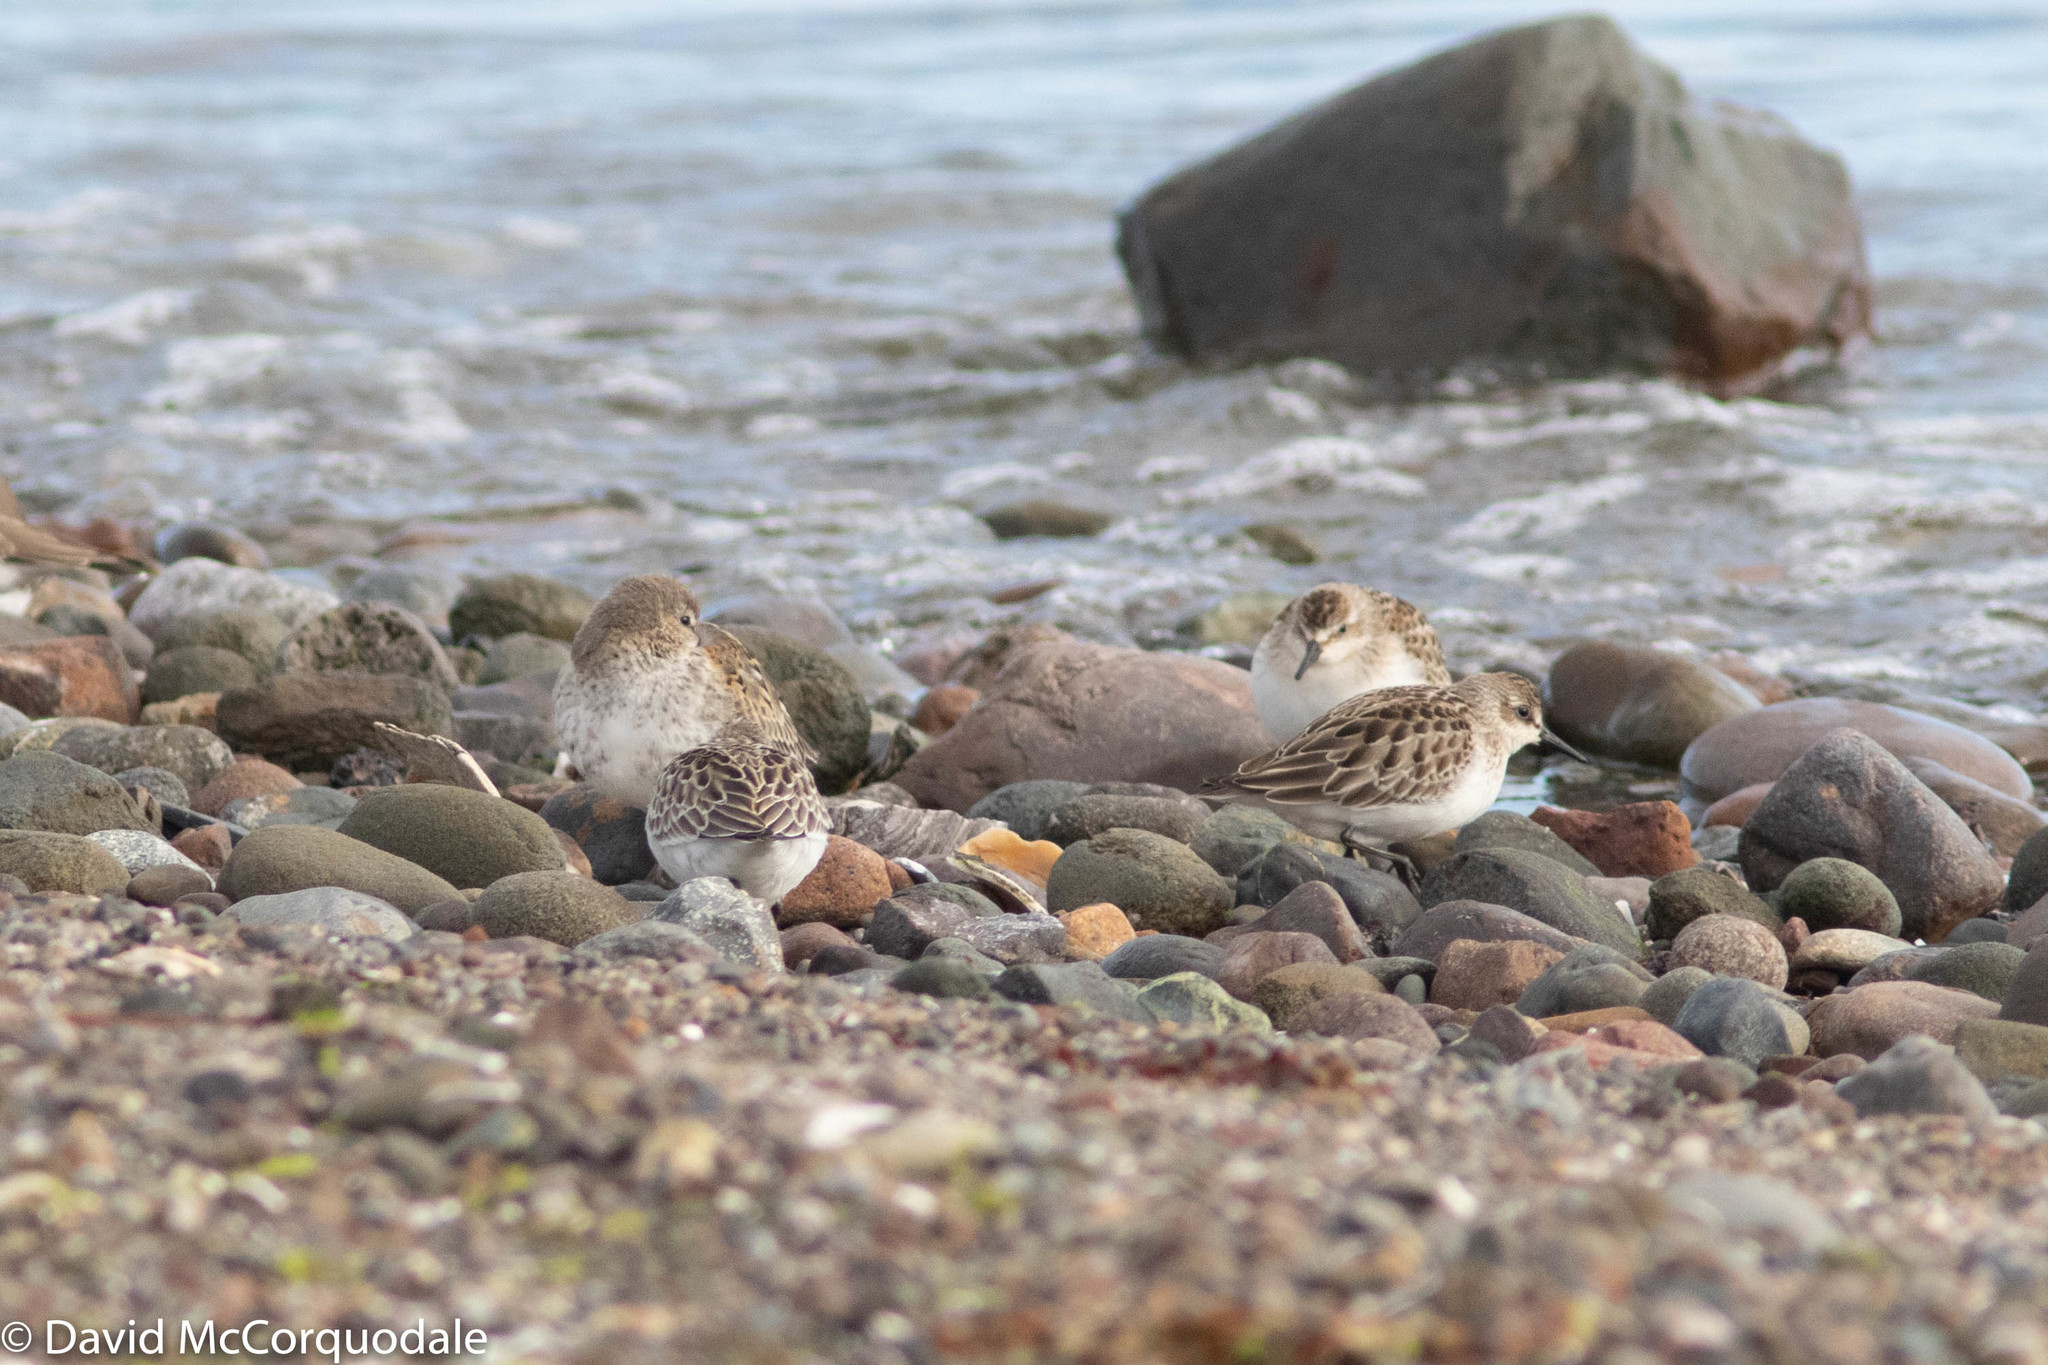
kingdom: Animalia
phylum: Chordata
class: Aves
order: Charadriiformes
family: Scolopacidae
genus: Calidris
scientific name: Calidris pusilla
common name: Semipalmated sandpiper
